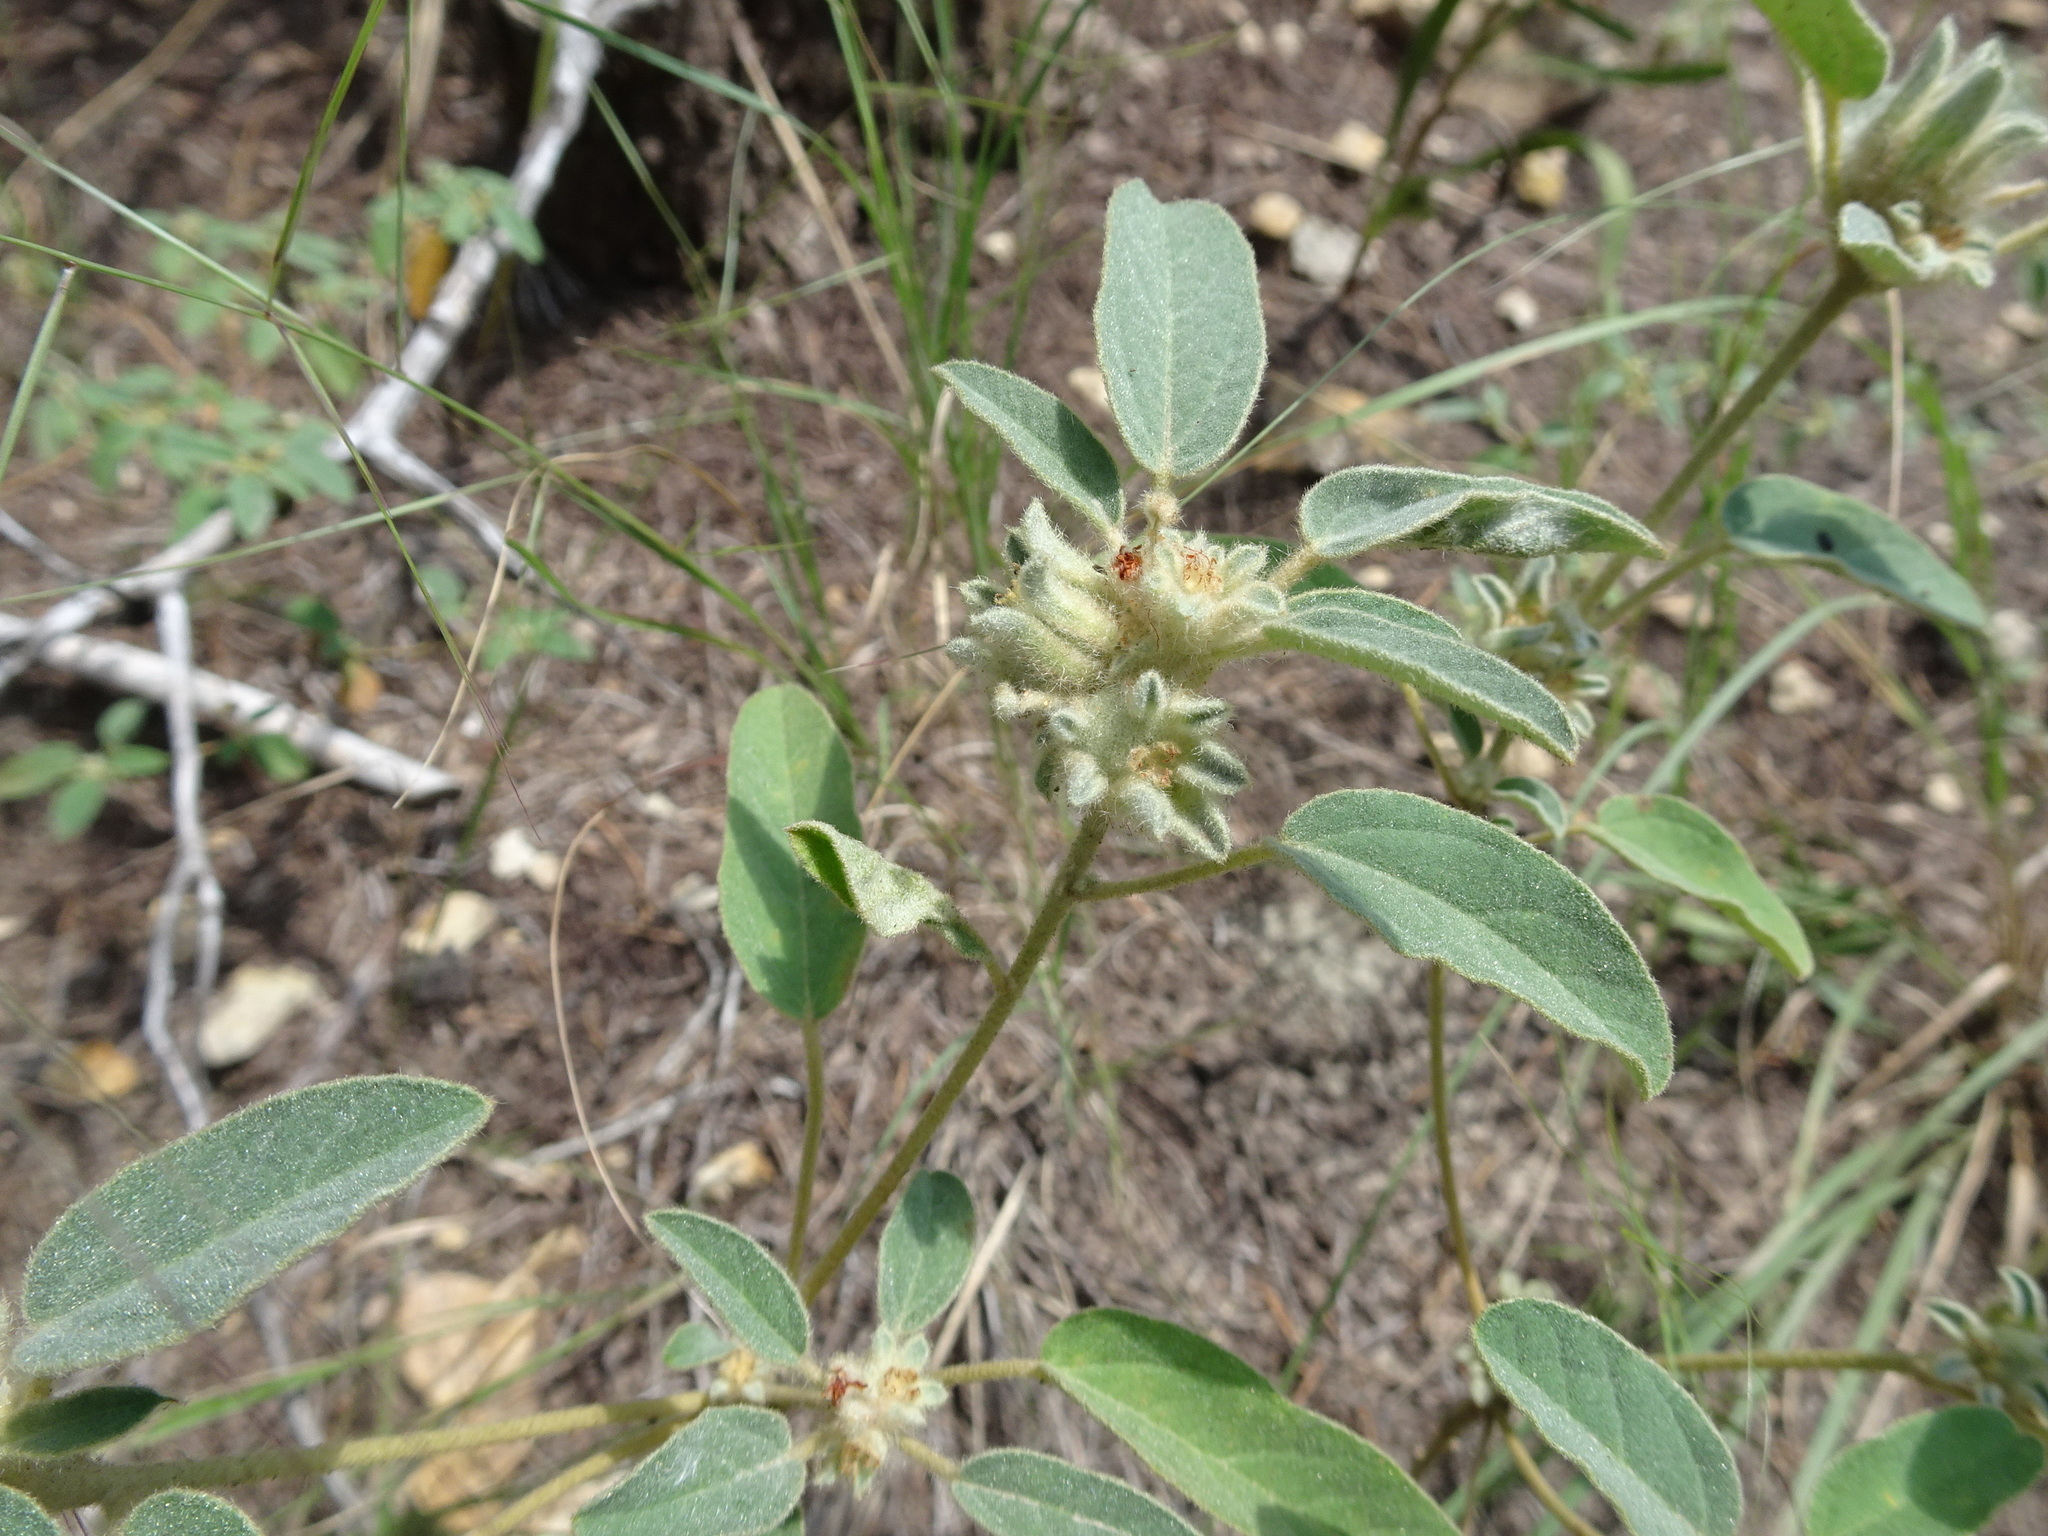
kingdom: Plantae
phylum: Tracheophyta
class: Magnoliopsida
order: Malpighiales
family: Euphorbiaceae
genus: Croton
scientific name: Croton capitatus
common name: Woolly croton
